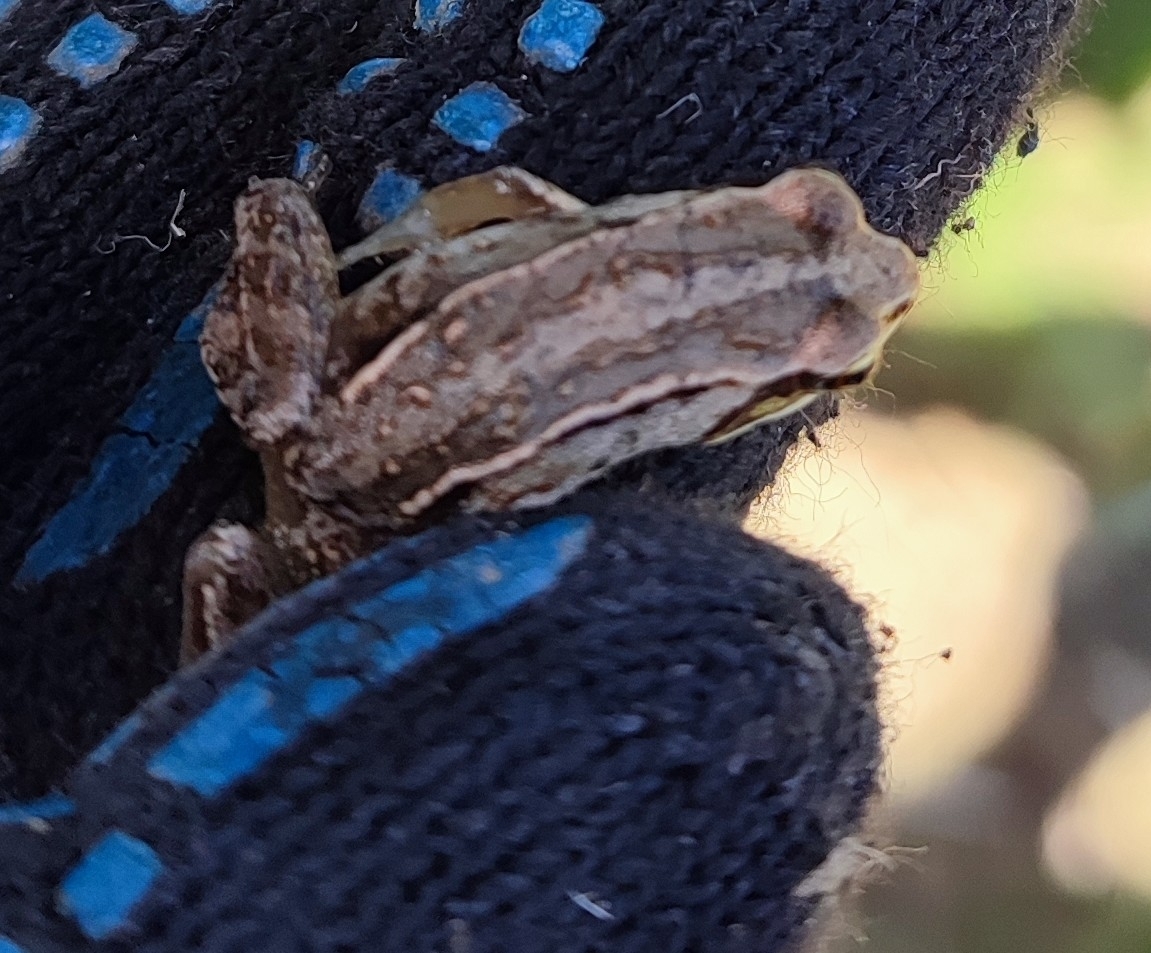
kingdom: Animalia
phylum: Chordata
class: Amphibia
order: Anura
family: Ranidae
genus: Rana
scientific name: Rana arvalis
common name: Moor frog
